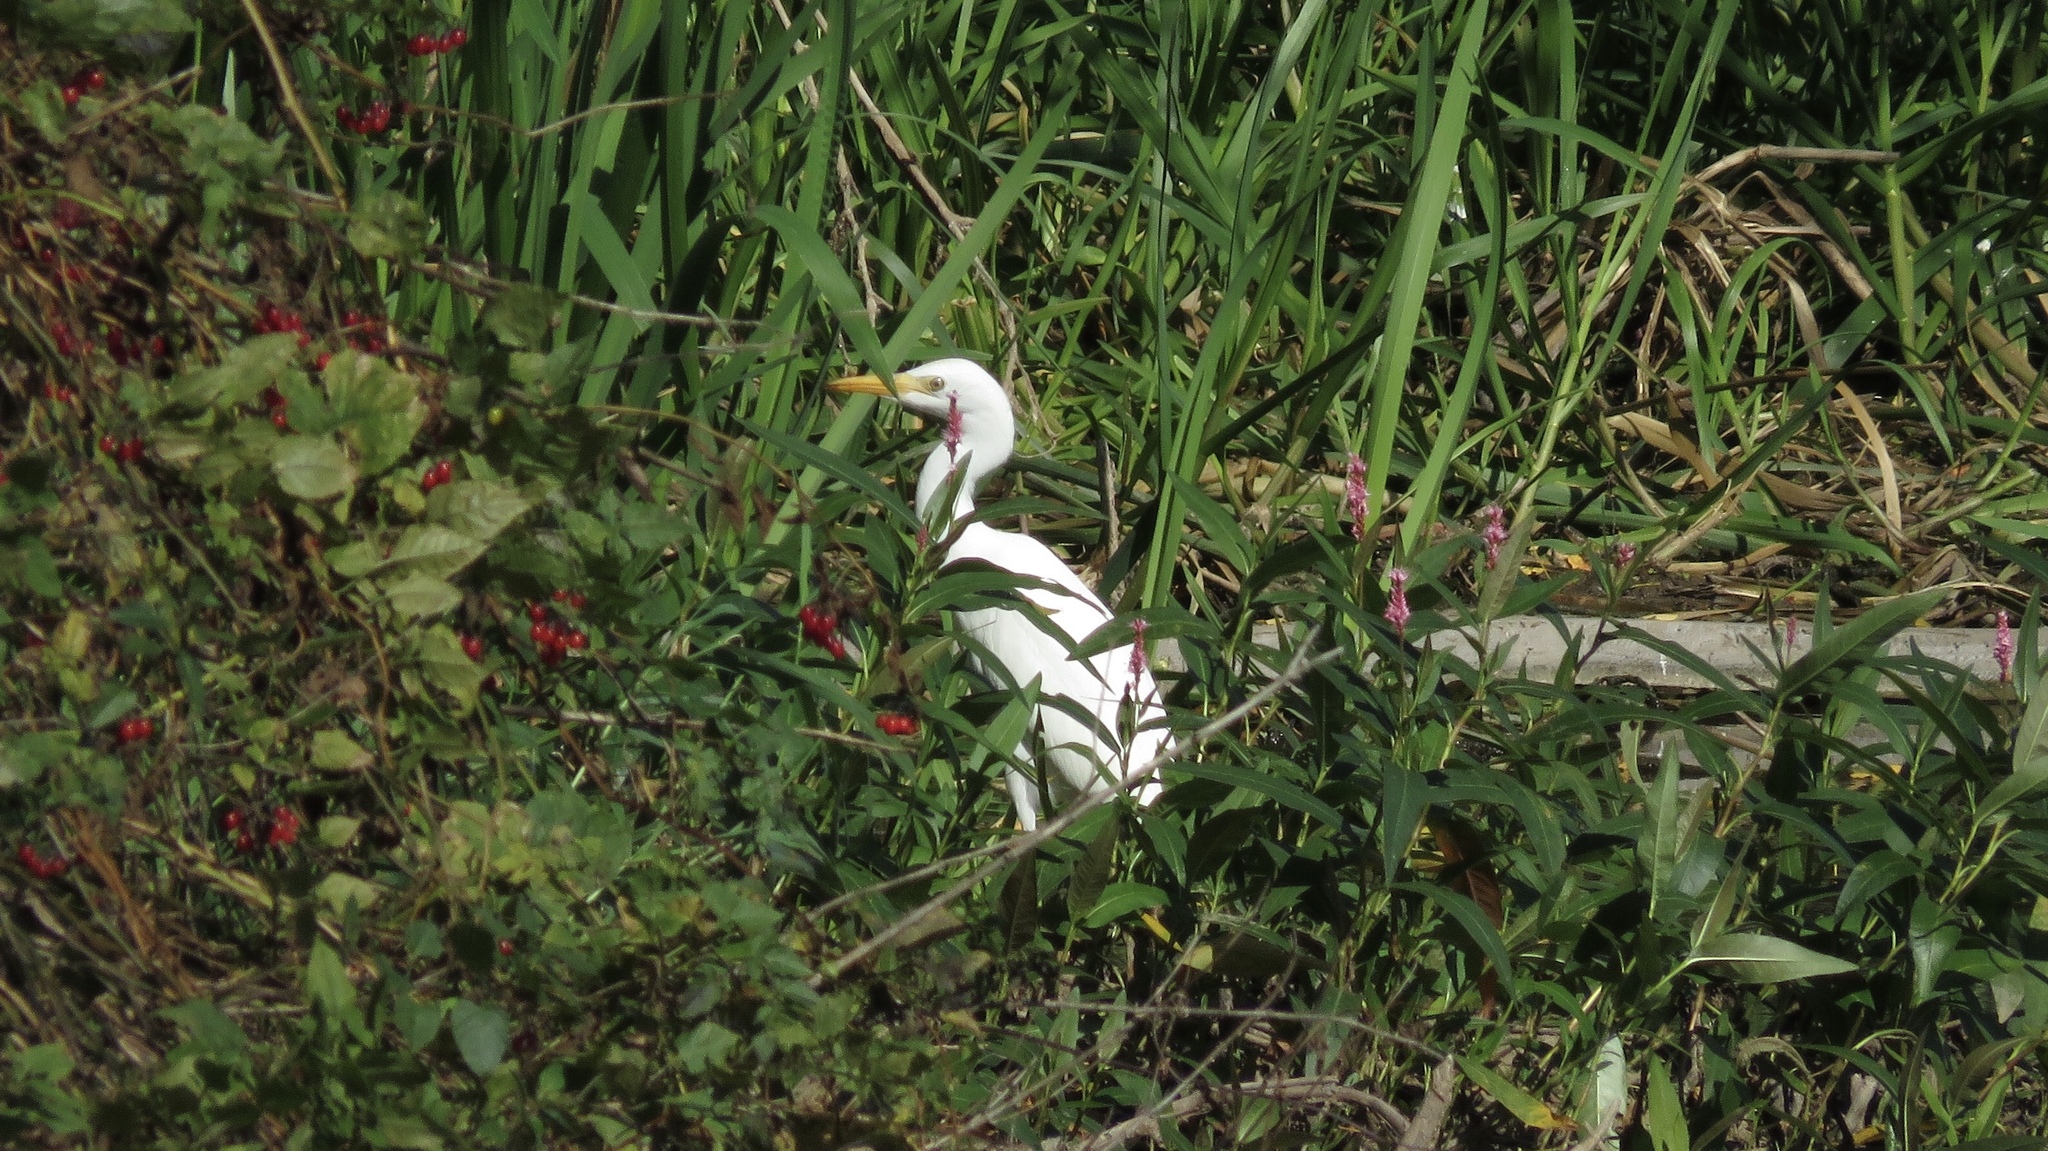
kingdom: Animalia
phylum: Chordata
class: Aves
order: Pelecaniformes
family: Ardeidae
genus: Bubulcus
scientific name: Bubulcus ibis
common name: Cattle egret
